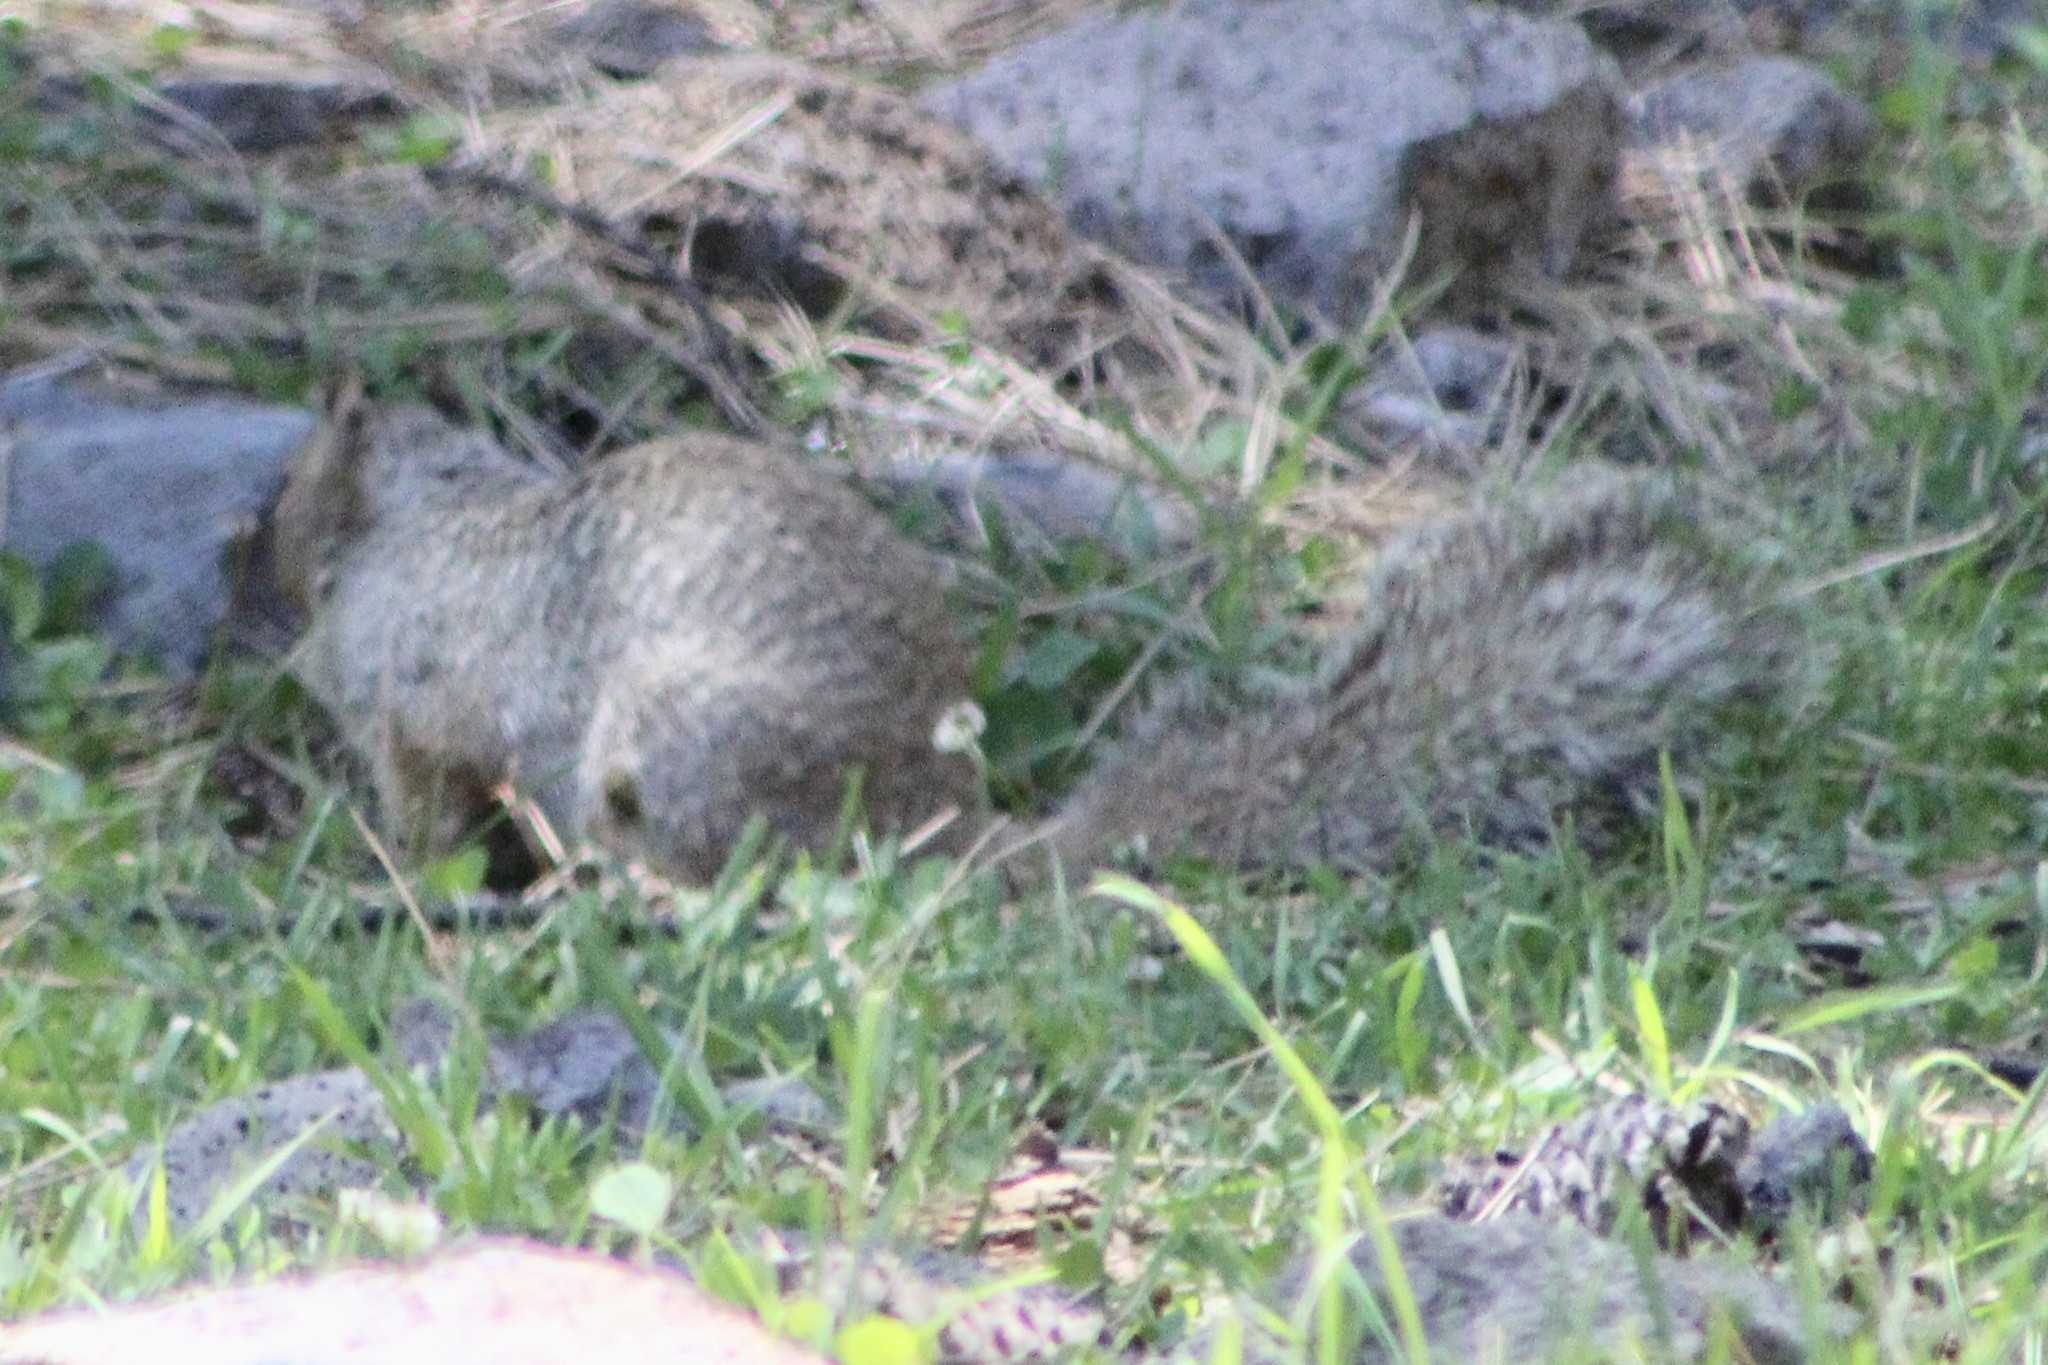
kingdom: Animalia
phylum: Chordata
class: Mammalia
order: Rodentia
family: Sciuridae
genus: Otospermophilus
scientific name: Otospermophilus variegatus
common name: Rock squirrel
